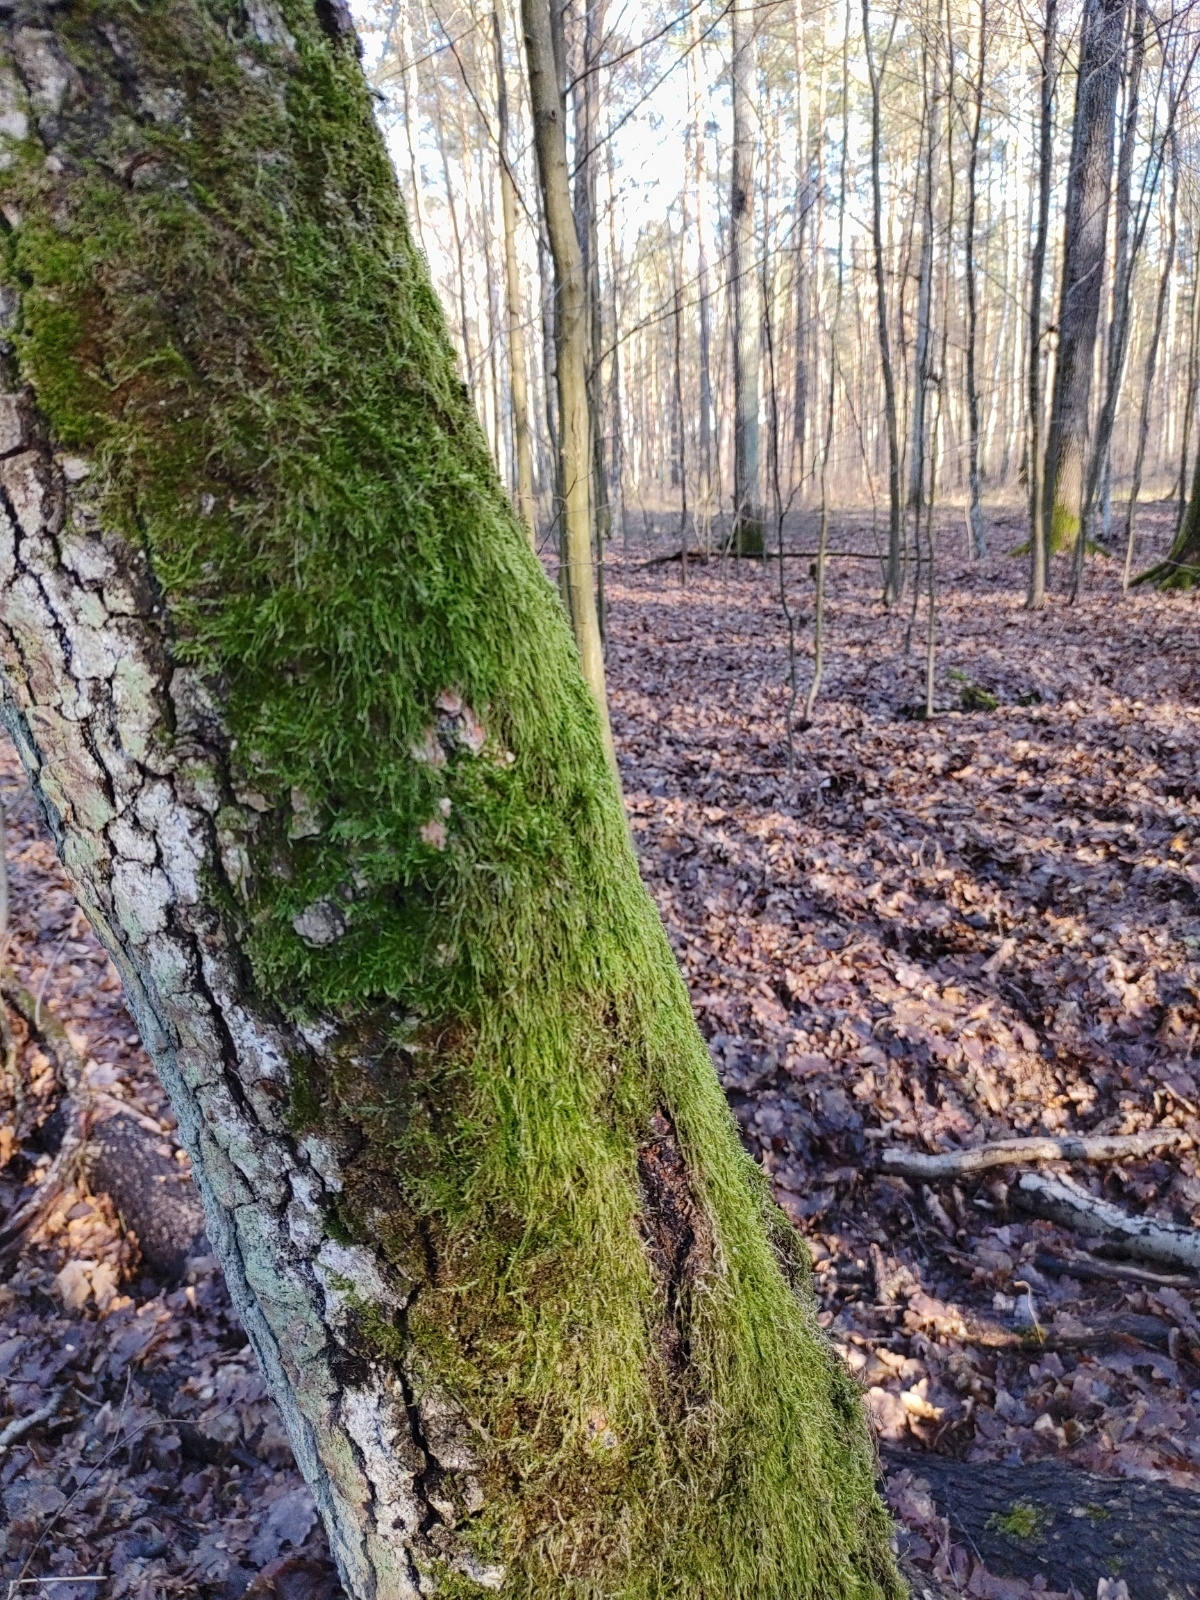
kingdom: Plantae
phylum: Bryophyta
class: Bryopsida
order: Hypnales
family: Hypnaceae
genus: Hypnum
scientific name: Hypnum cupressiforme
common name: Cypress-leaved plait-moss
